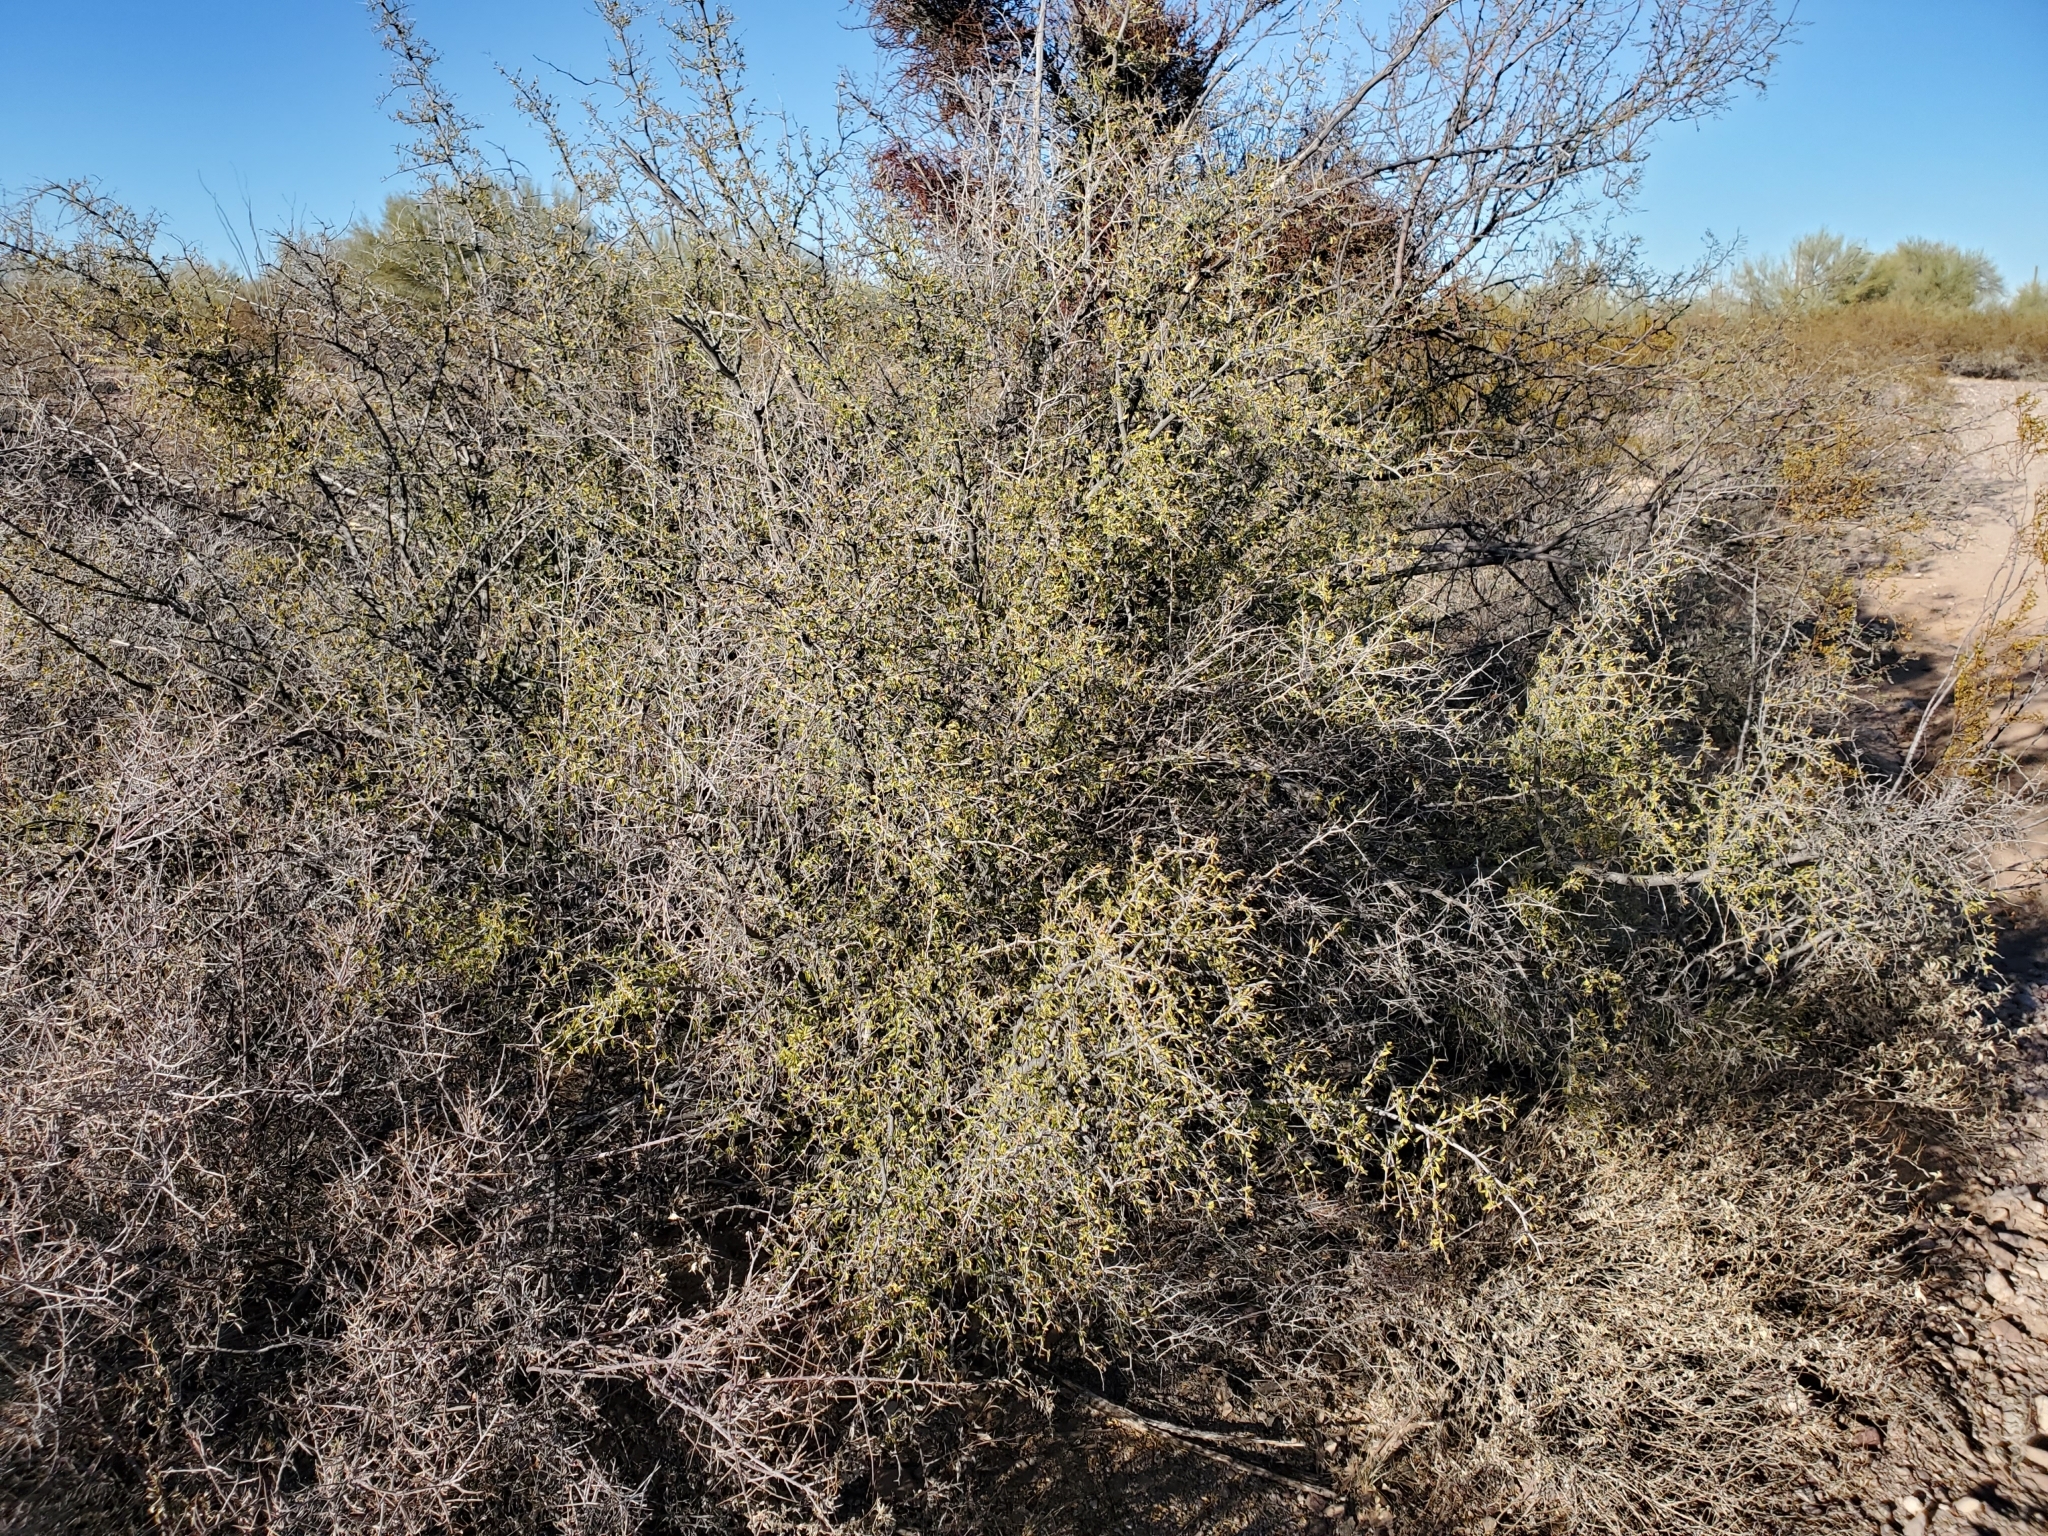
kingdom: Plantae
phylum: Tracheophyta
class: Magnoliopsida
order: Rosales
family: Cannabaceae
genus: Celtis
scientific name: Celtis pallida
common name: Desert hackberry
